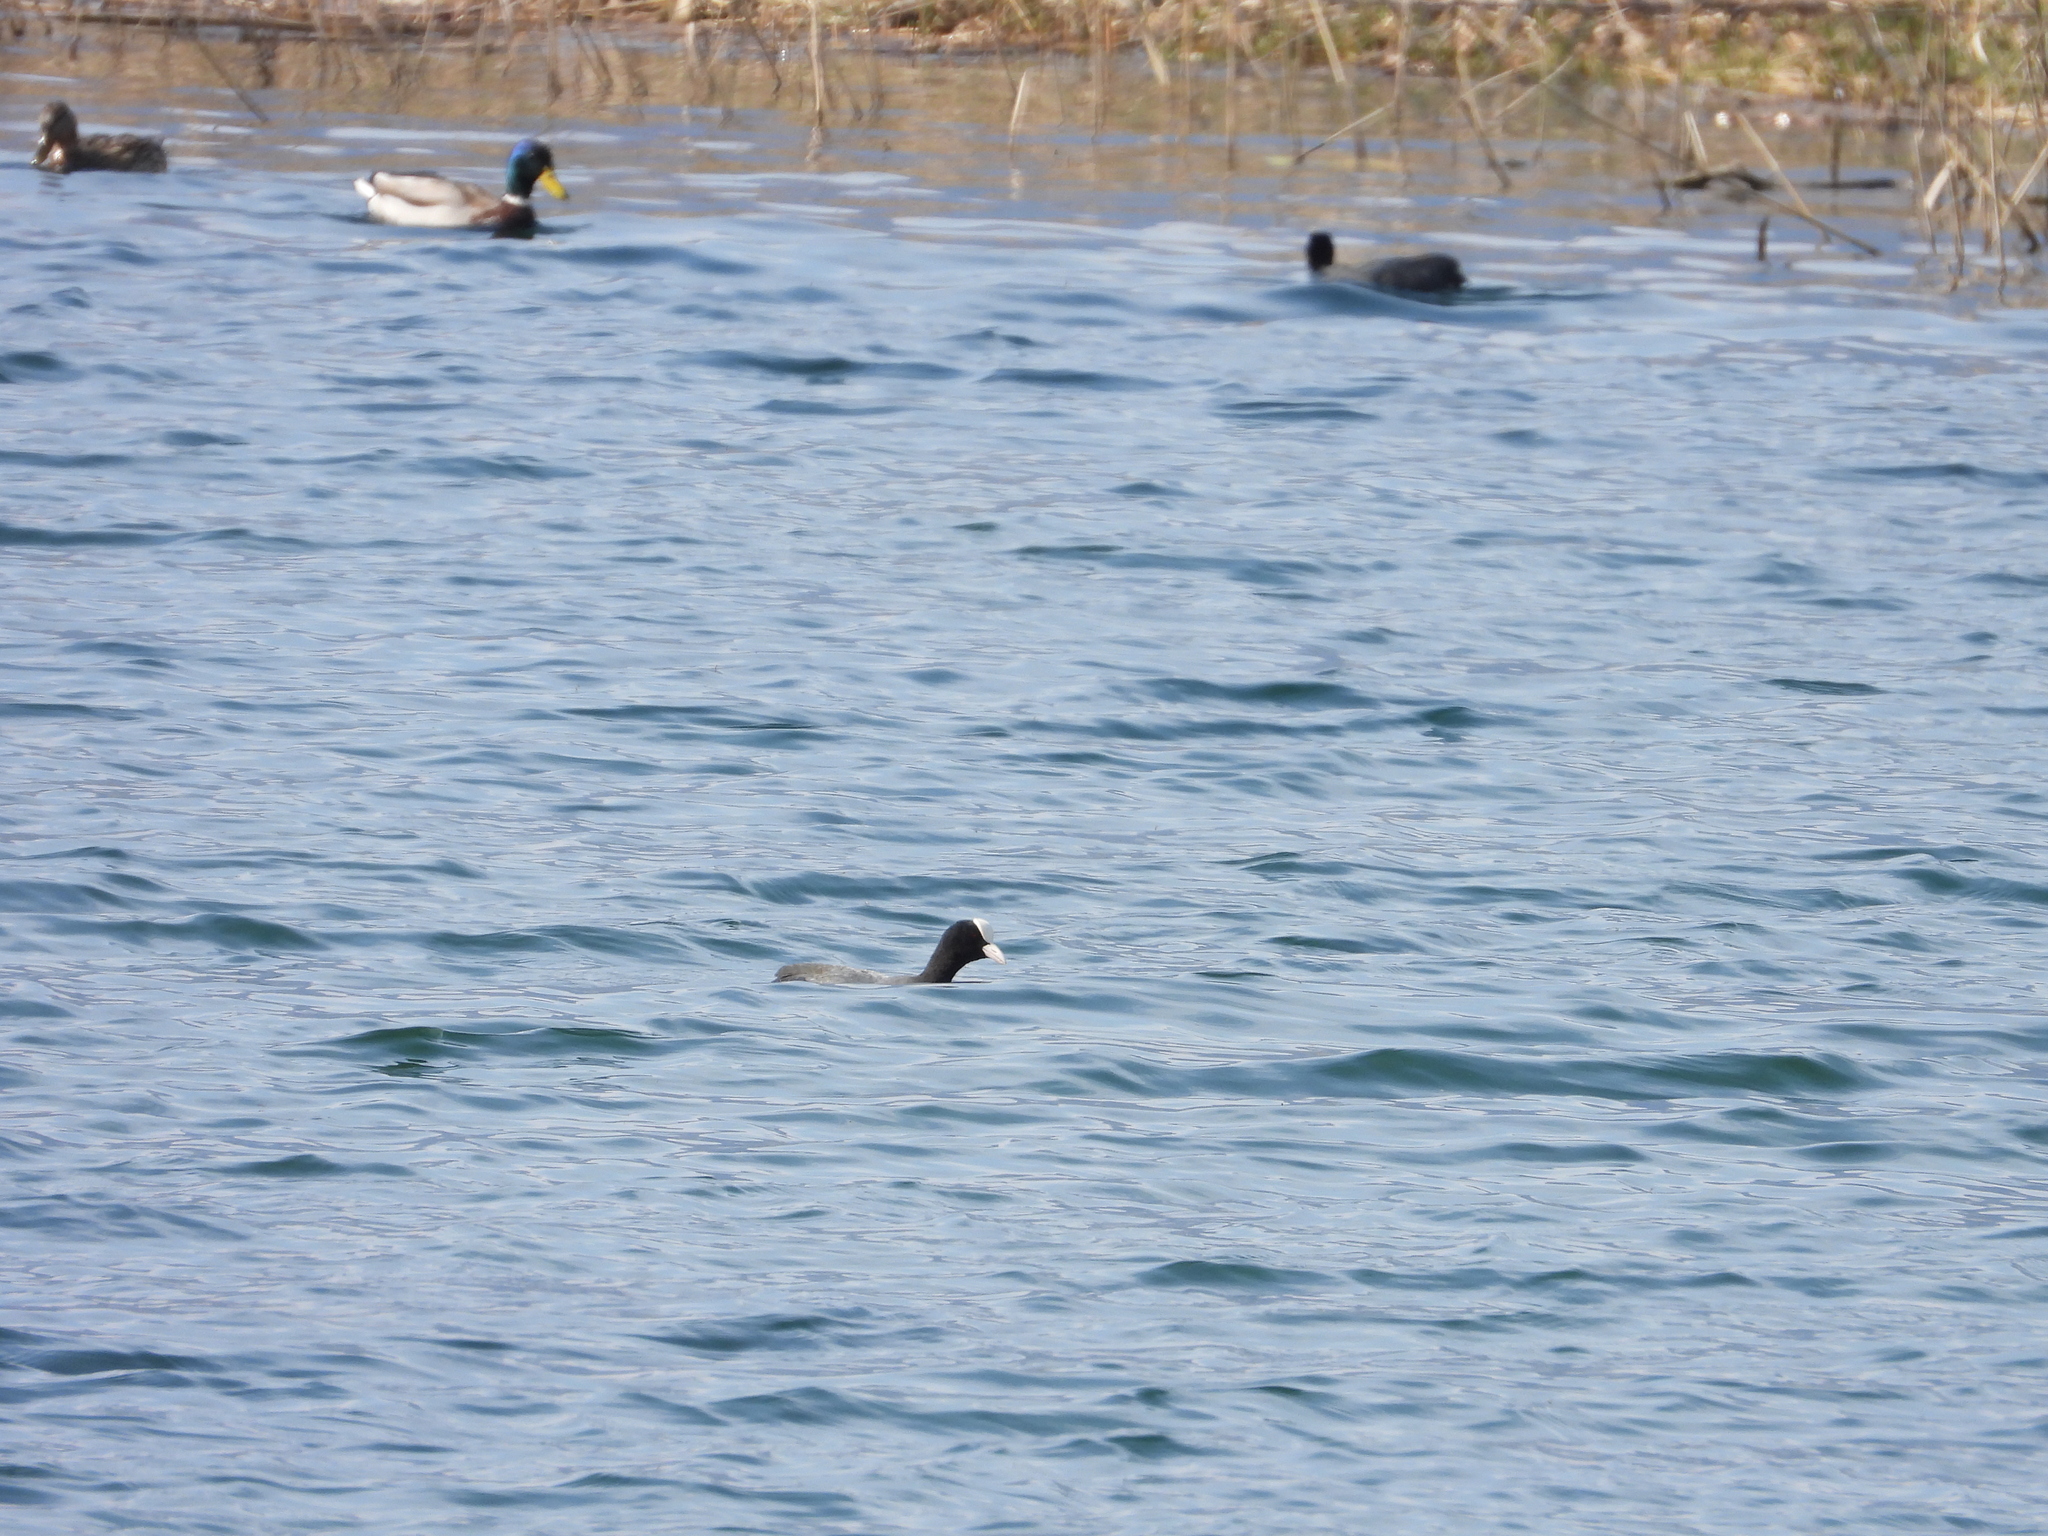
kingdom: Animalia
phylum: Chordata
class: Aves
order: Gruiformes
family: Rallidae
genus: Fulica
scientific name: Fulica atra
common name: Eurasian coot
